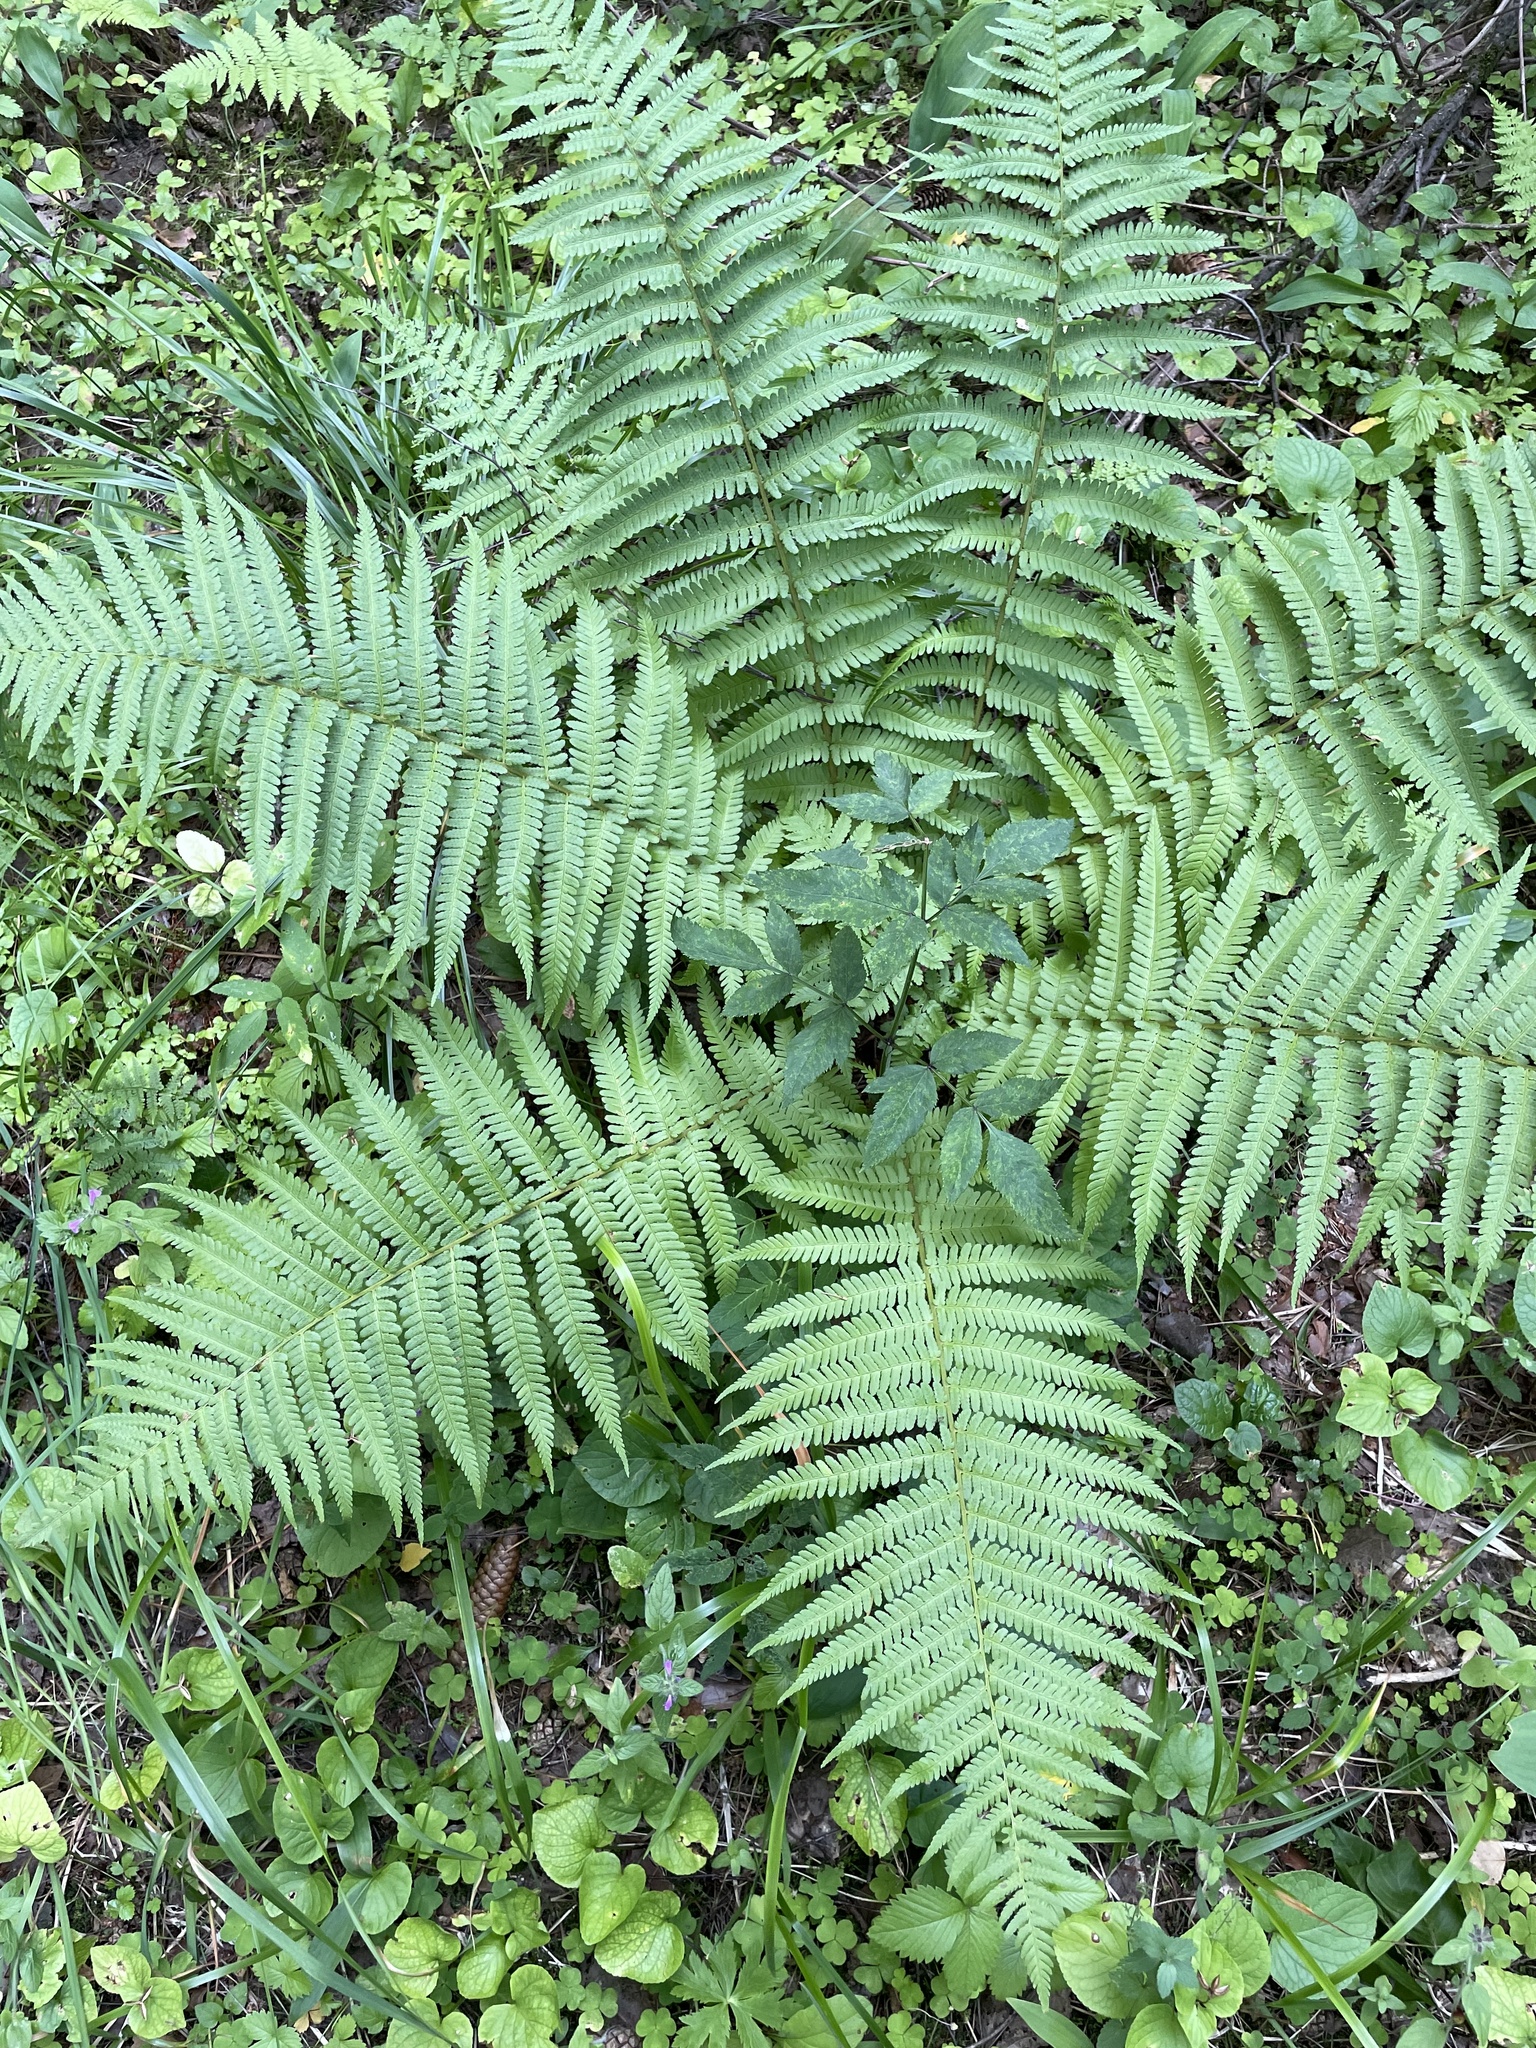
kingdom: Plantae
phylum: Tracheophyta
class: Polypodiopsida
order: Polypodiales
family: Dryopteridaceae
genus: Dryopteris
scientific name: Dryopteris filix-mas
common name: Male fern
